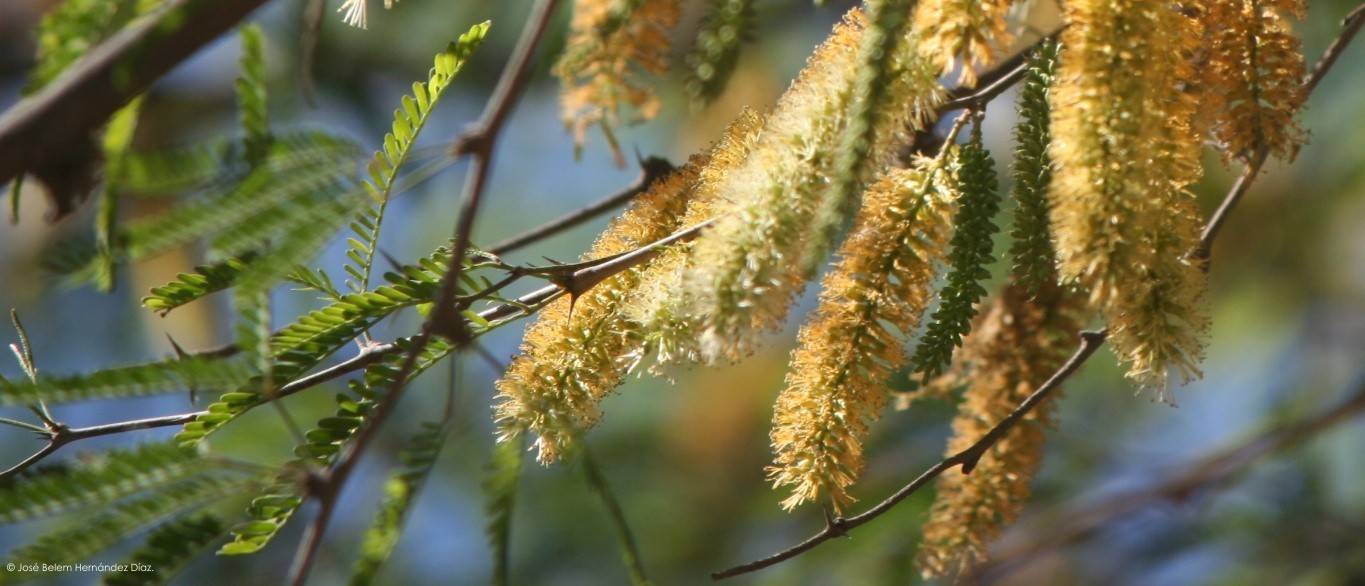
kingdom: Plantae
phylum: Tracheophyta
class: Magnoliopsida
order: Fabales
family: Fabaceae
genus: Prosopis
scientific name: Prosopis laevigata
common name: Smooth mesquite
